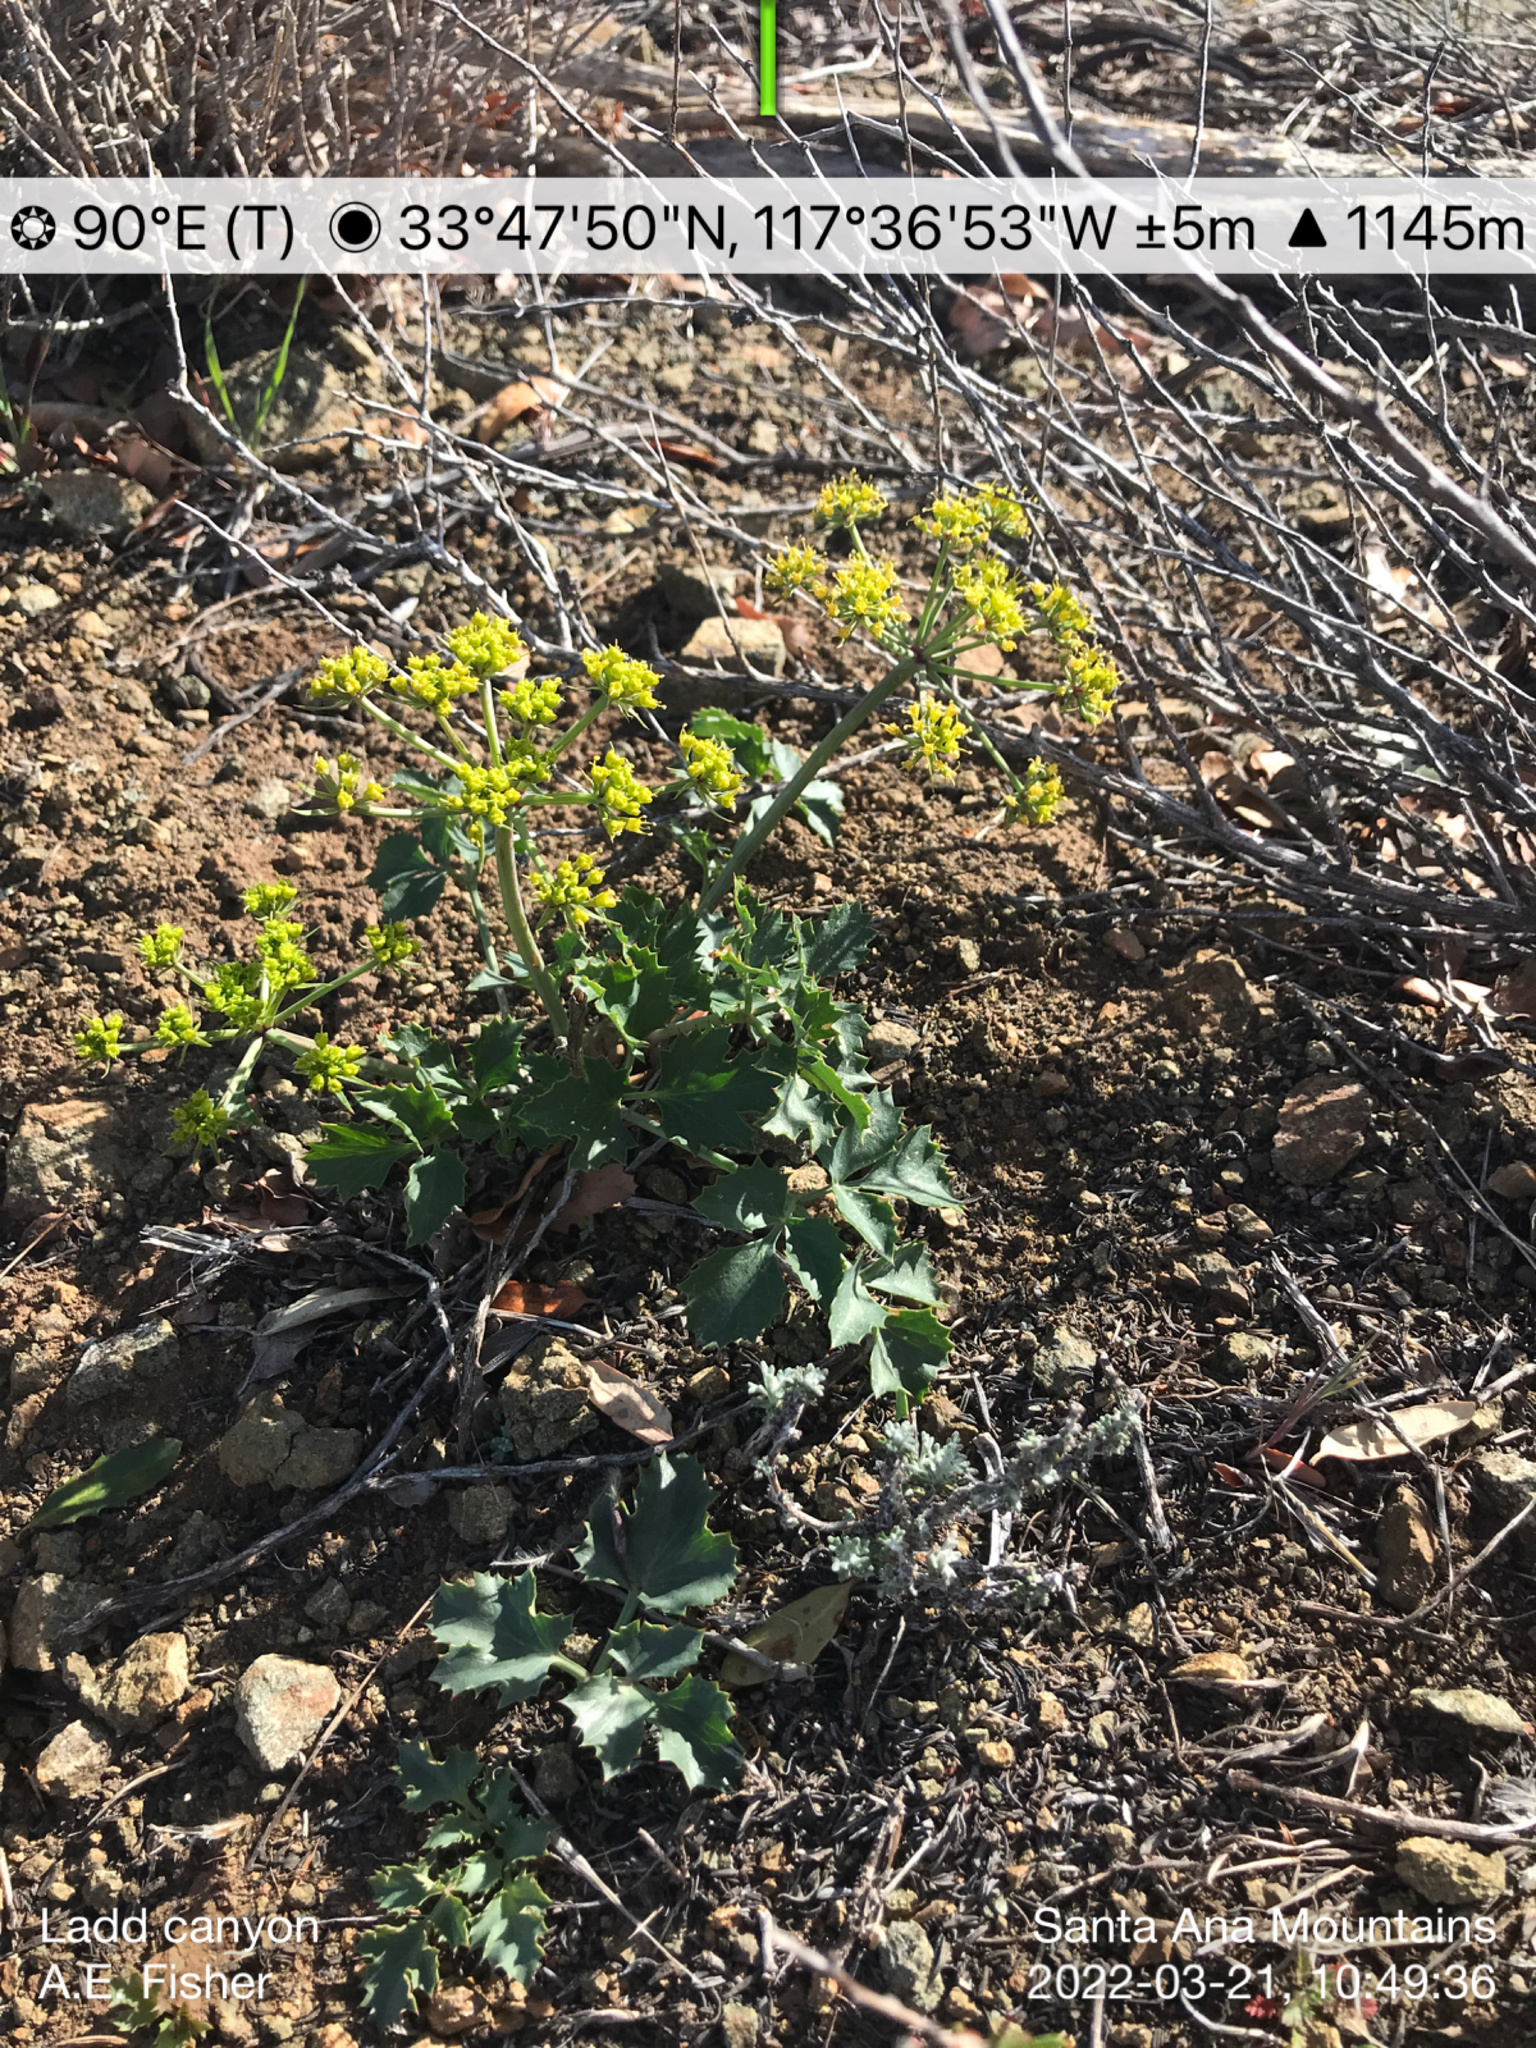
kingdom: Plantae
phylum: Tracheophyta
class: Magnoliopsida
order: Apiales
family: Apiaceae
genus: Lomatium
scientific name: Lomatium lucidum
